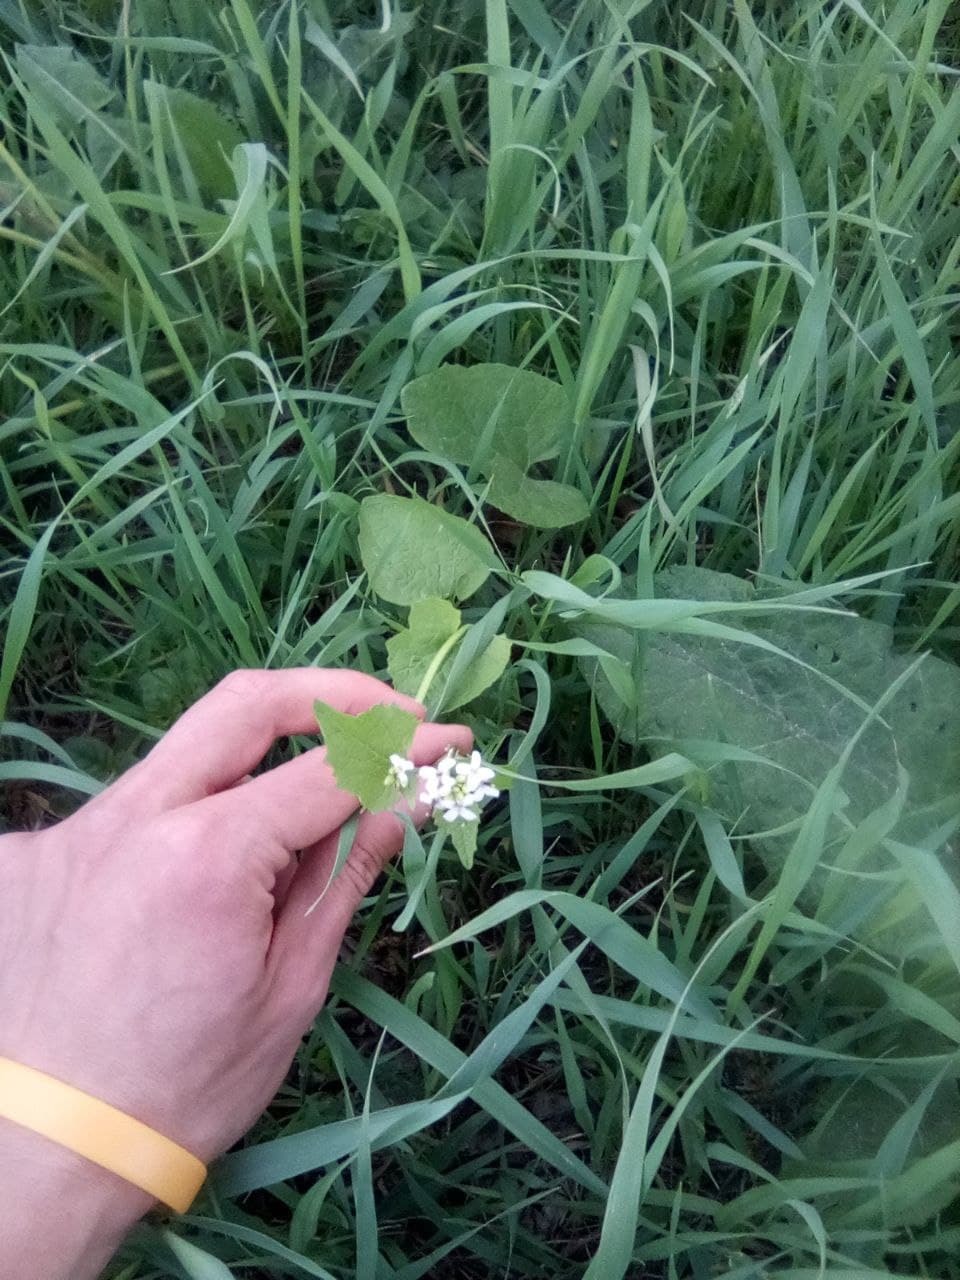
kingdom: Plantae
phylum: Tracheophyta
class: Magnoliopsida
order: Brassicales
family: Brassicaceae
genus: Alliaria
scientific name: Alliaria petiolata
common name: Garlic mustard
